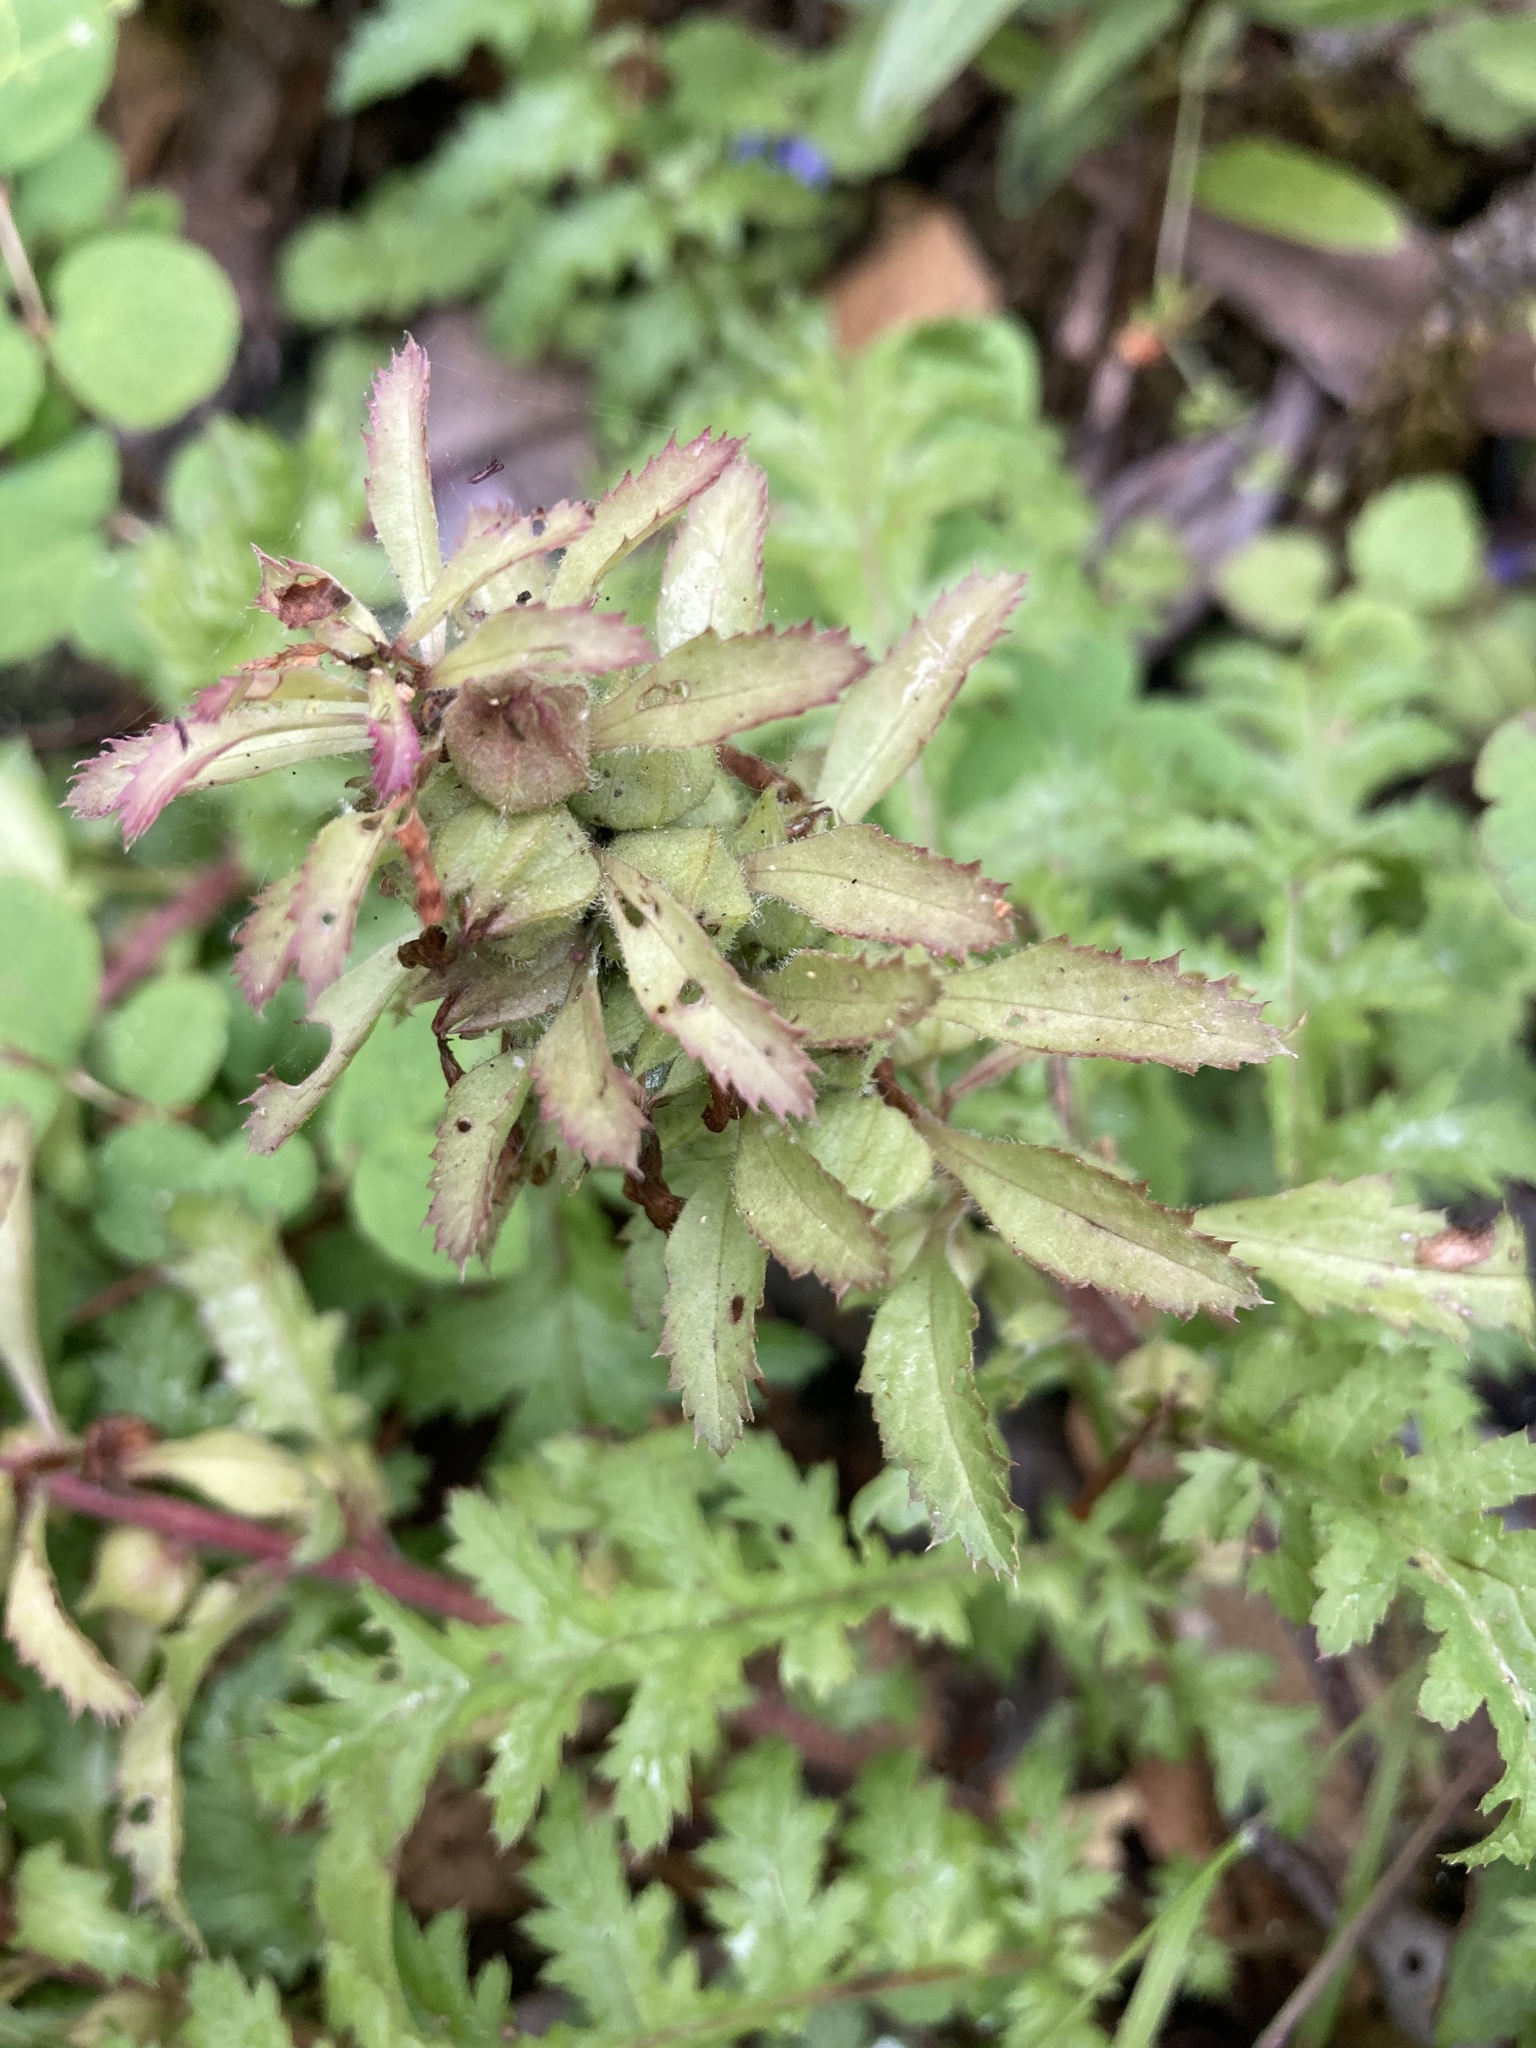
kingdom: Plantae
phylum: Tracheophyta
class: Magnoliopsida
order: Lamiales
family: Orobanchaceae
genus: Pedicularis
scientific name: Pedicularis densiflora
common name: Indian warrior
